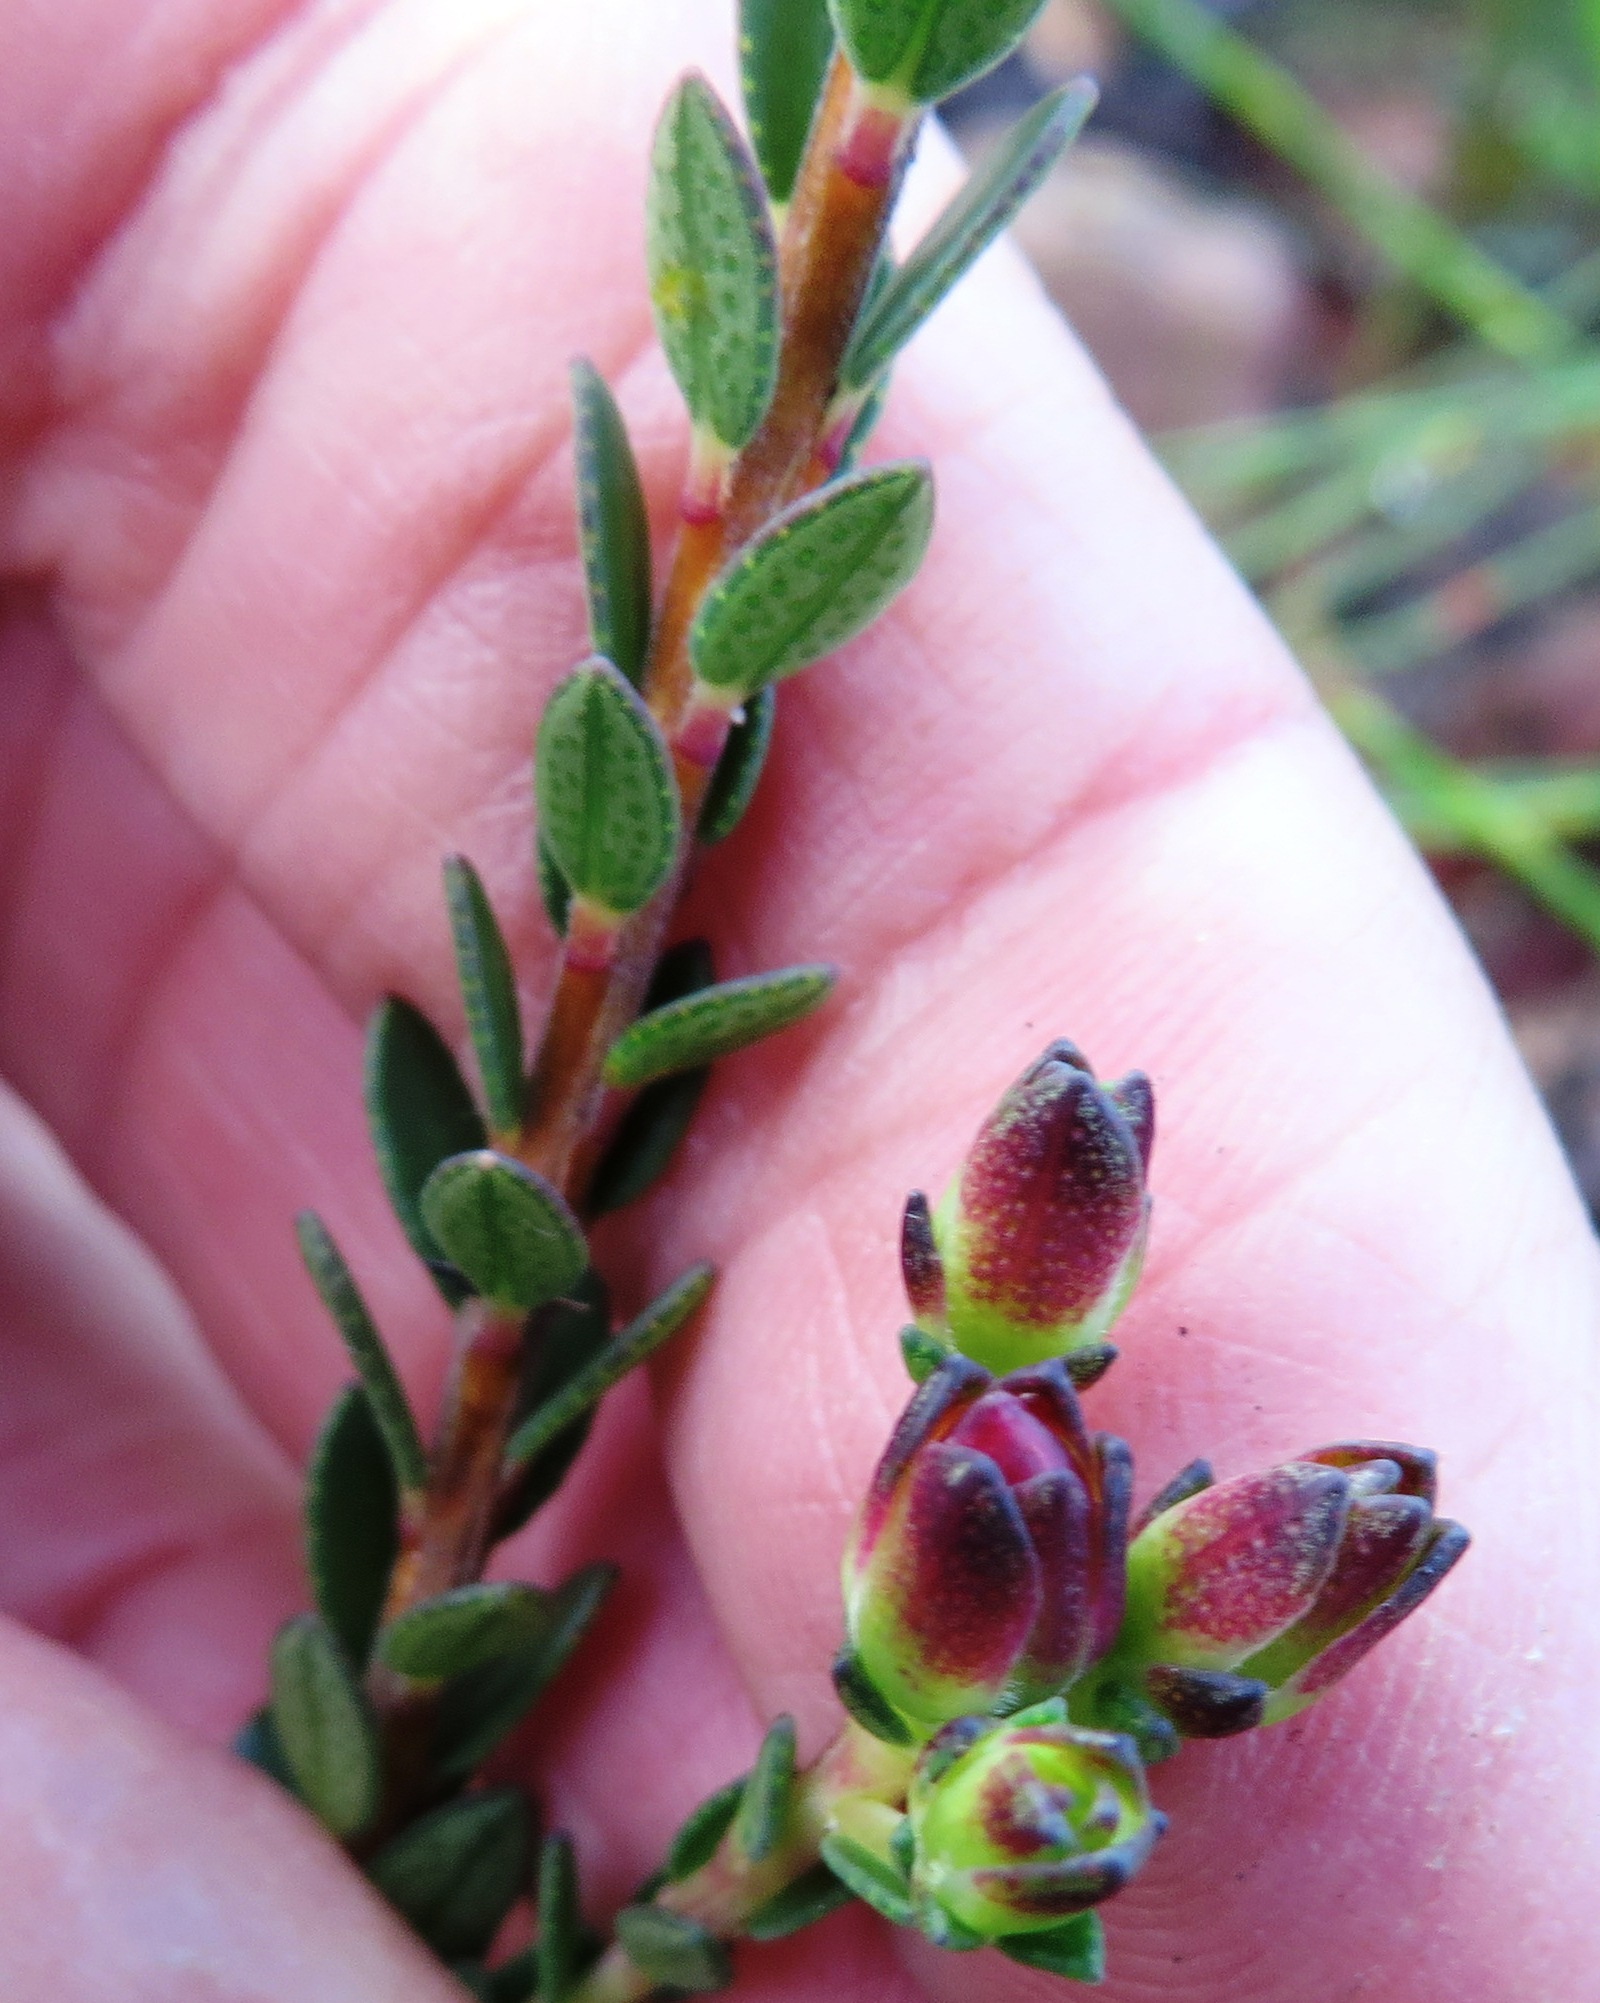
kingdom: Plantae
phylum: Tracheophyta
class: Magnoliopsida
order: Sapindales
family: Rutaceae
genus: Adenandra
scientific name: Adenandra villosa
